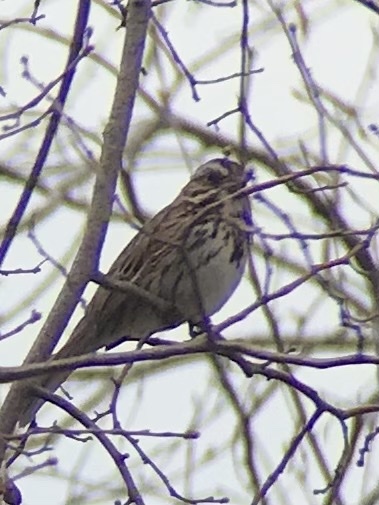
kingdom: Animalia
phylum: Chordata
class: Aves
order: Passeriformes
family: Passerellidae
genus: Melospiza
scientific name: Melospiza melodia
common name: Song sparrow
